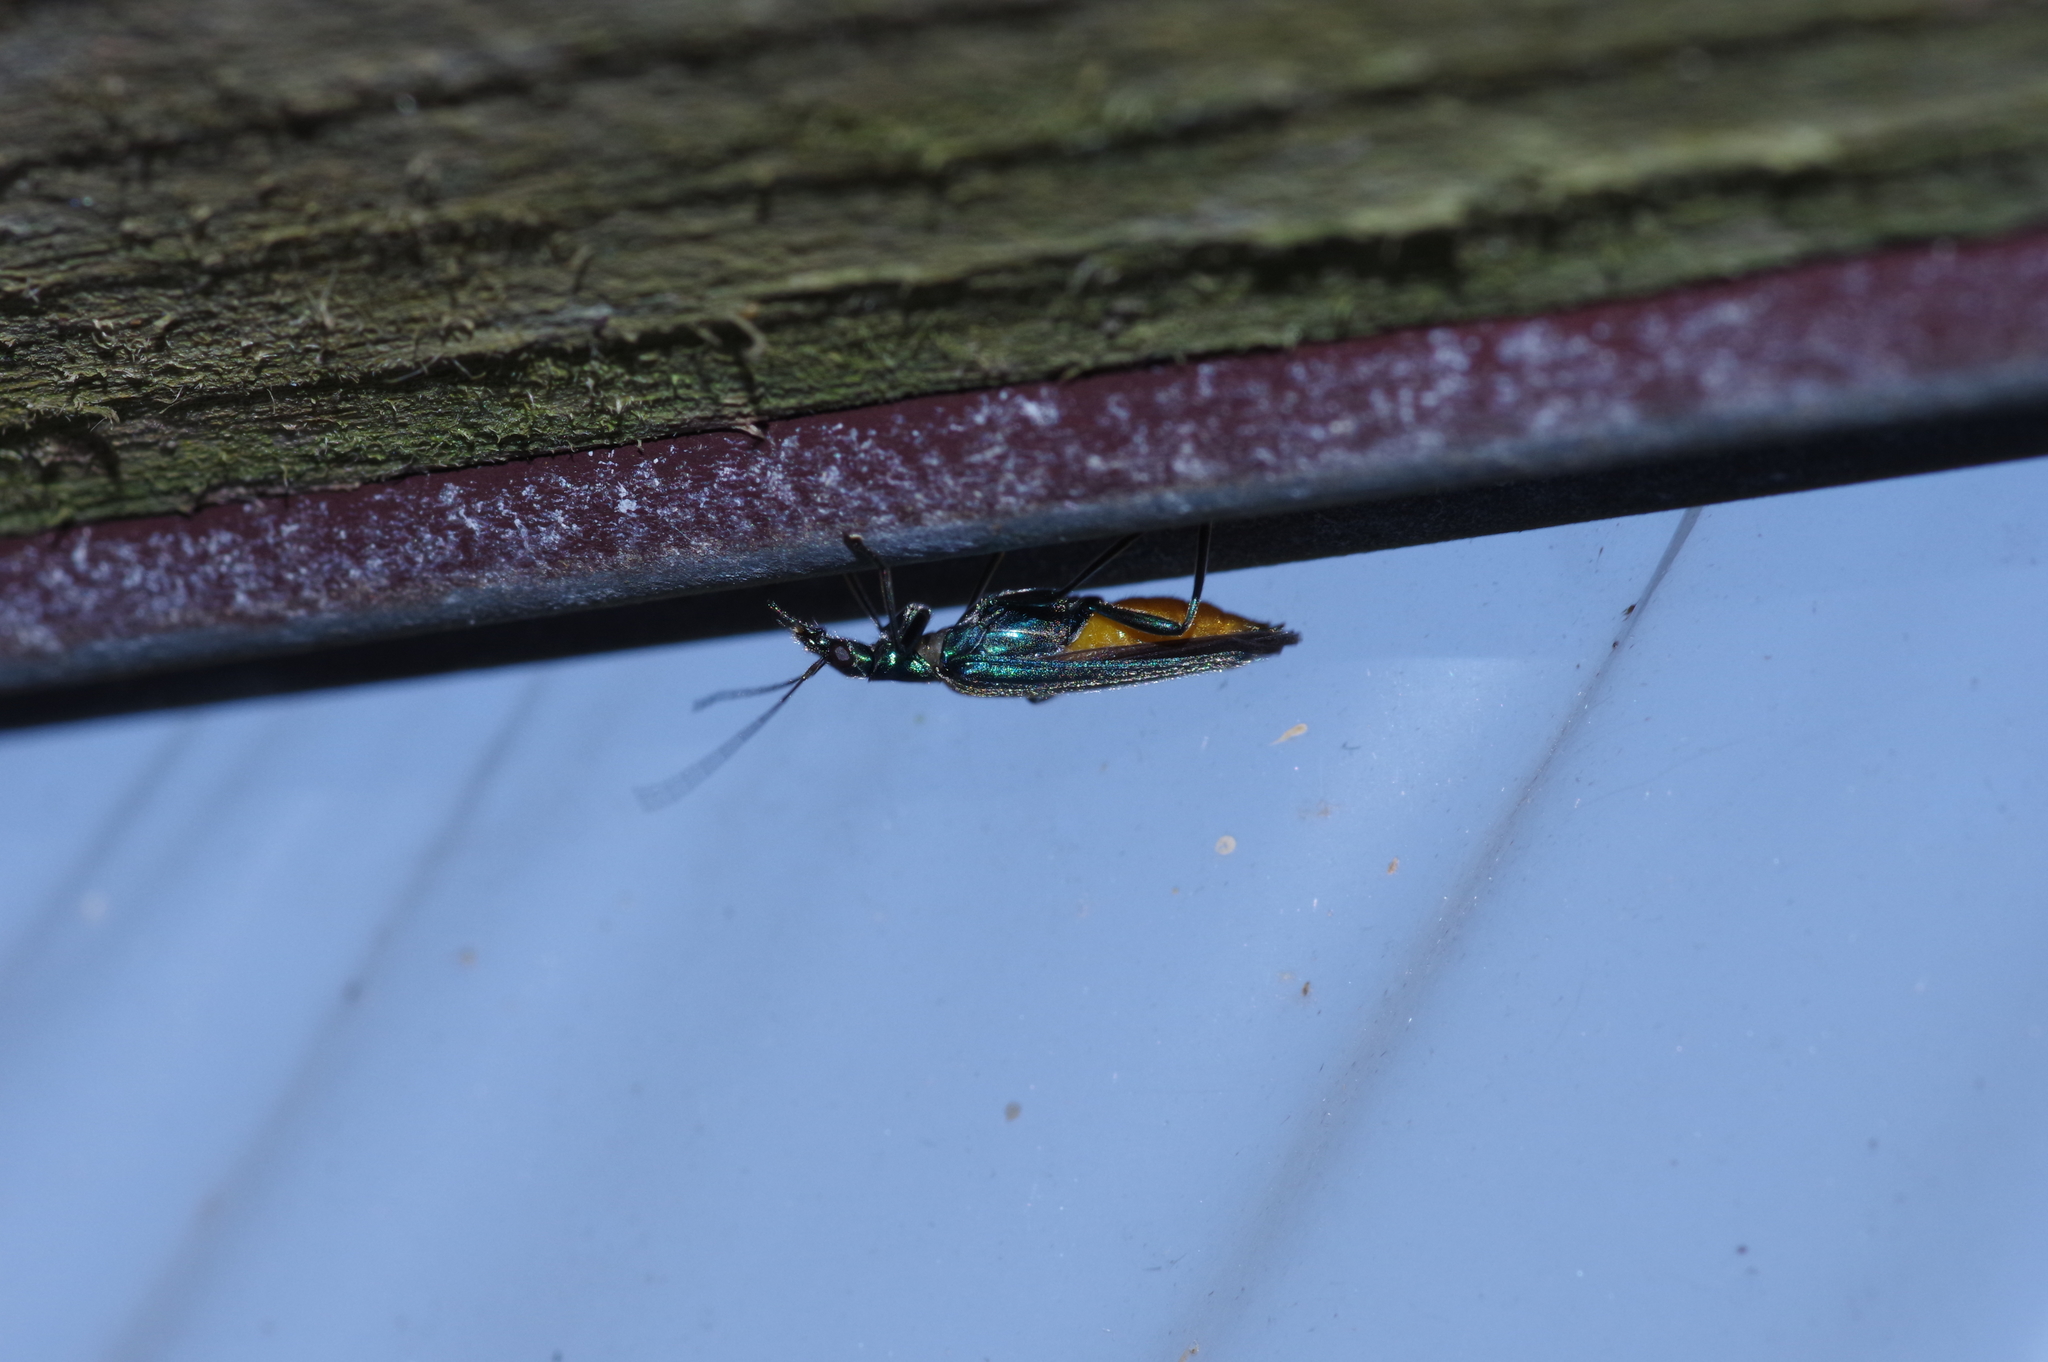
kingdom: Animalia
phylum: Arthropoda
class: Insecta
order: Coleoptera
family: Oedemeridae
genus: Oedemera
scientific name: Oedemera
